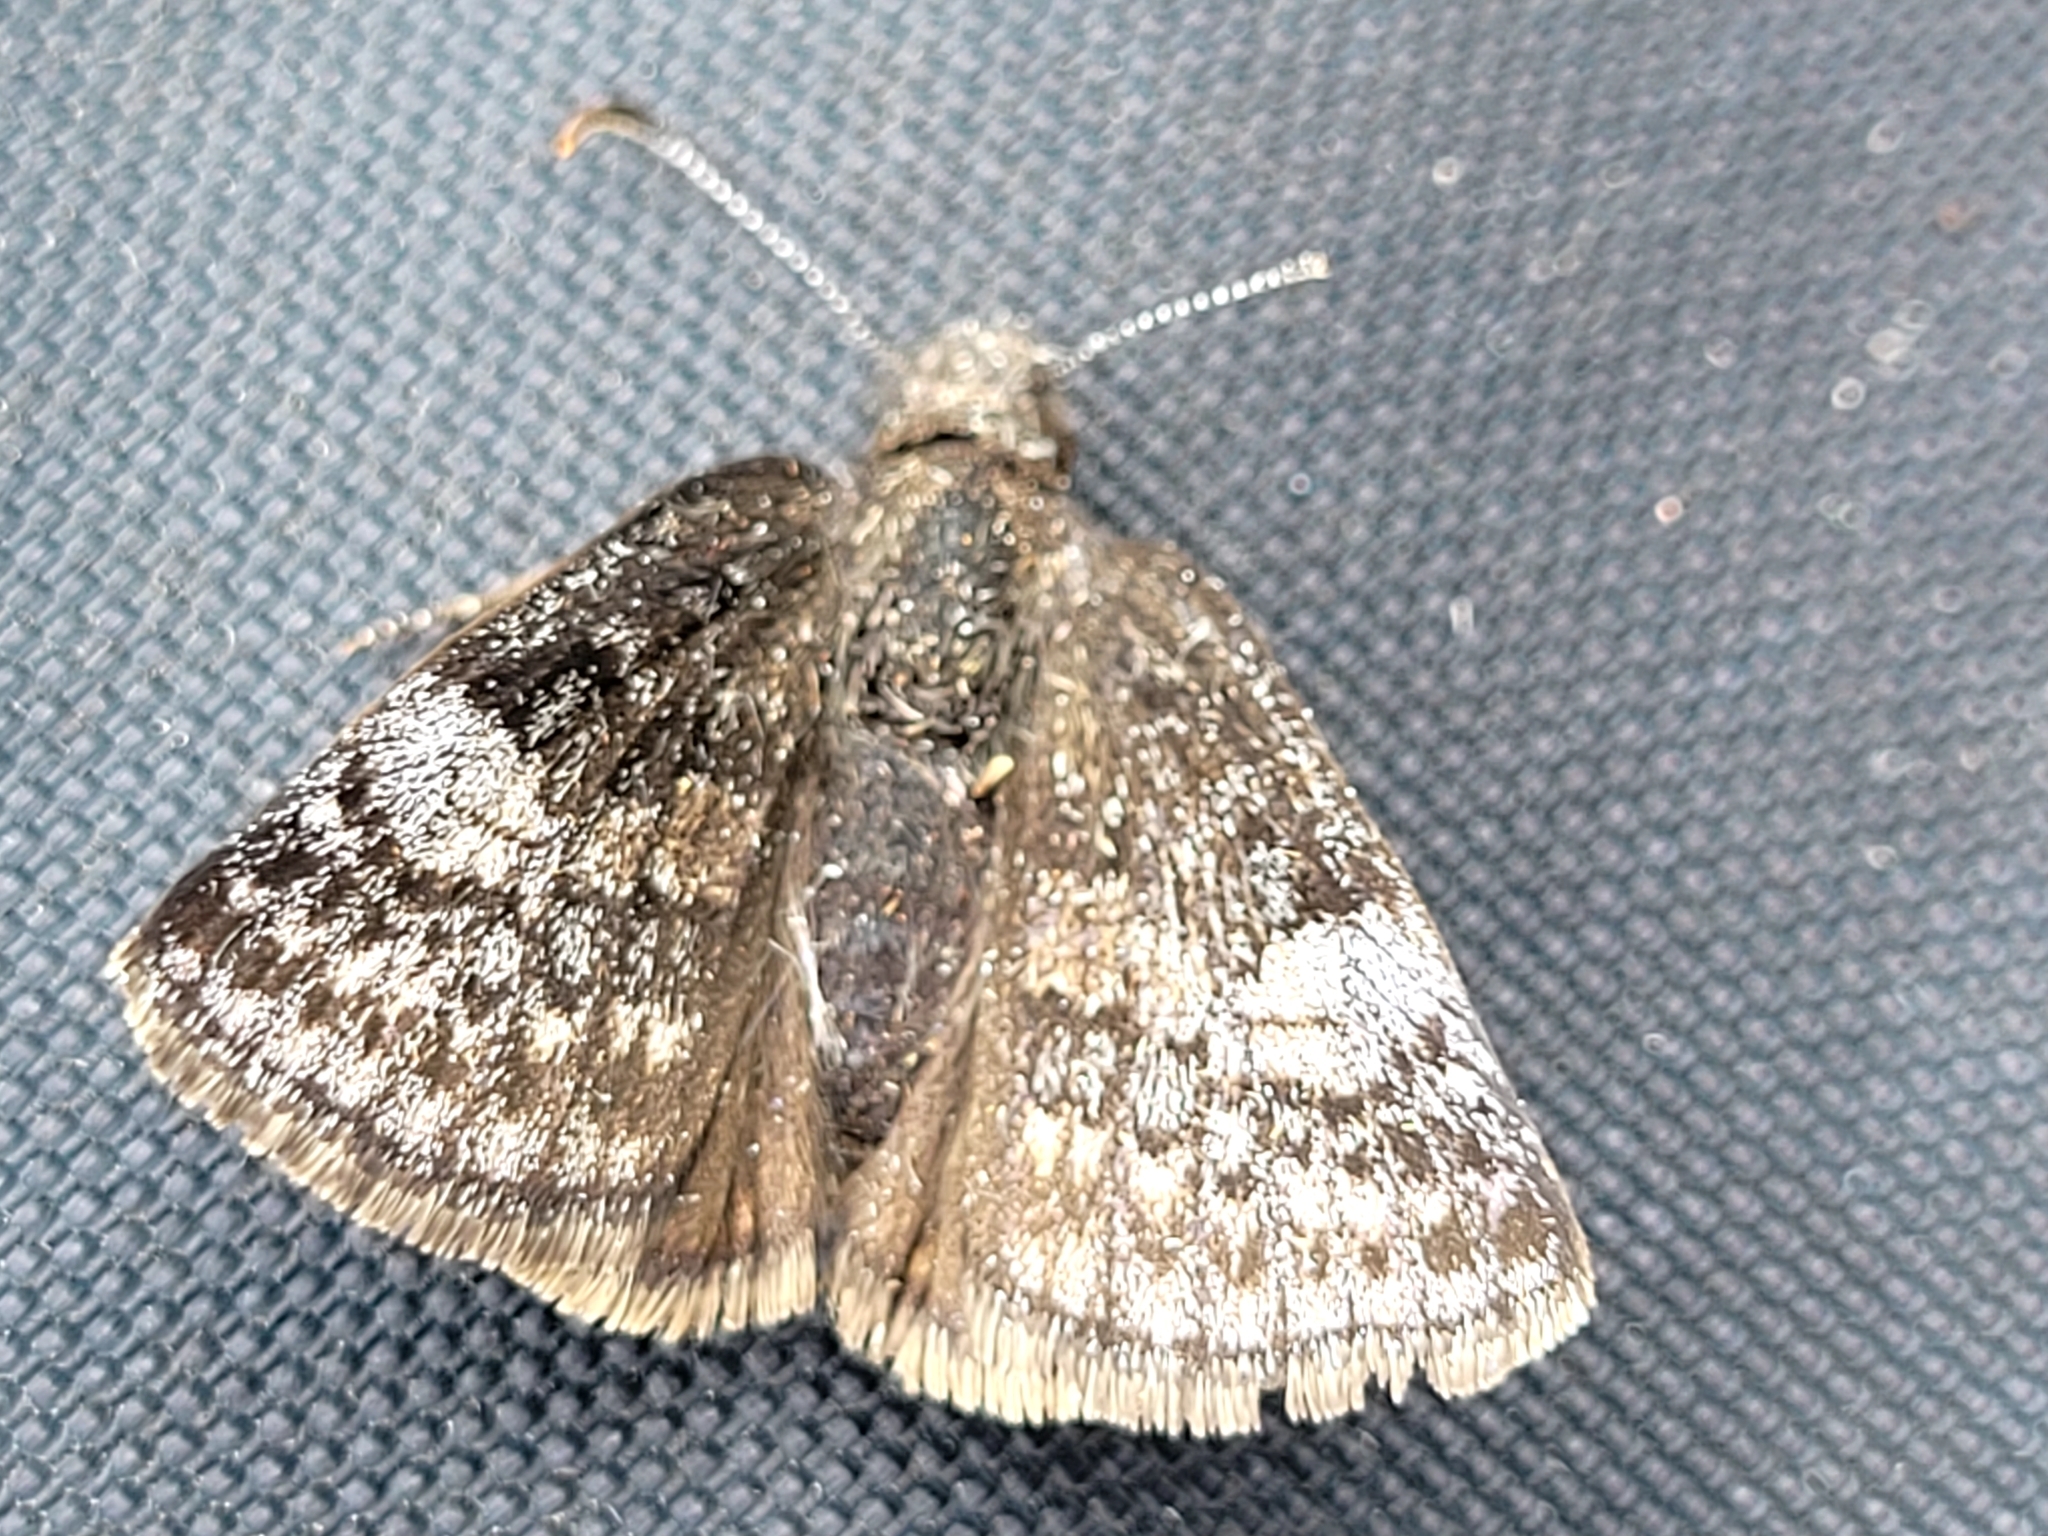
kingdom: Animalia
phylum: Arthropoda
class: Insecta
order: Lepidoptera
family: Hesperiidae
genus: Erynnis
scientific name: Erynnis icelus
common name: Dreamy duskywing
